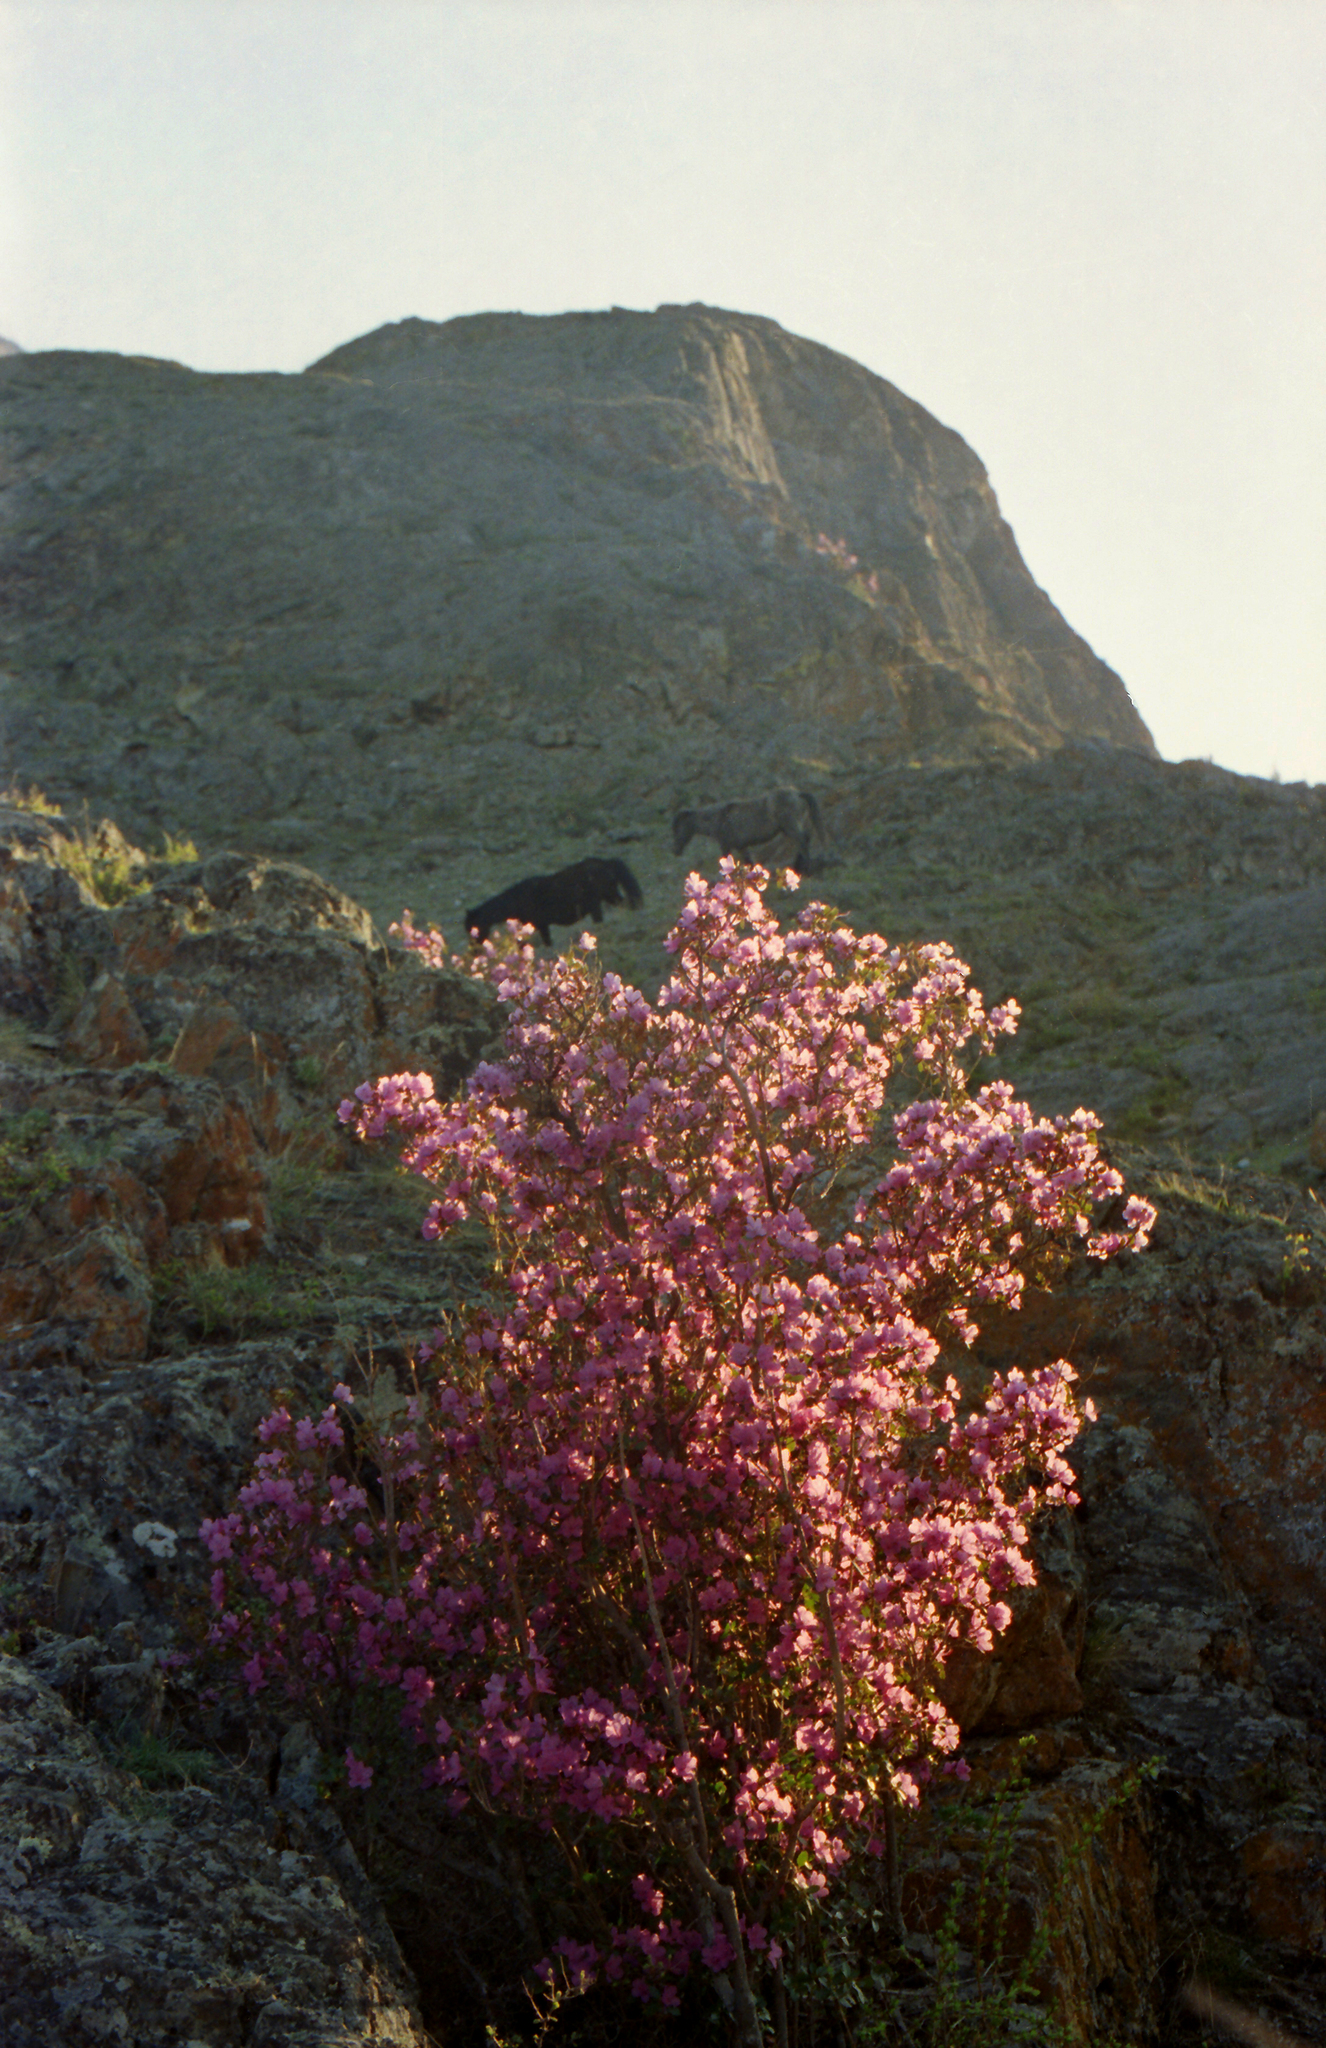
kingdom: Plantae
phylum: Tracheophyta
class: Magnoliopsida
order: Ericales
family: Ericaceae
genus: Rhododendron
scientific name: Rhododendron dauricum
